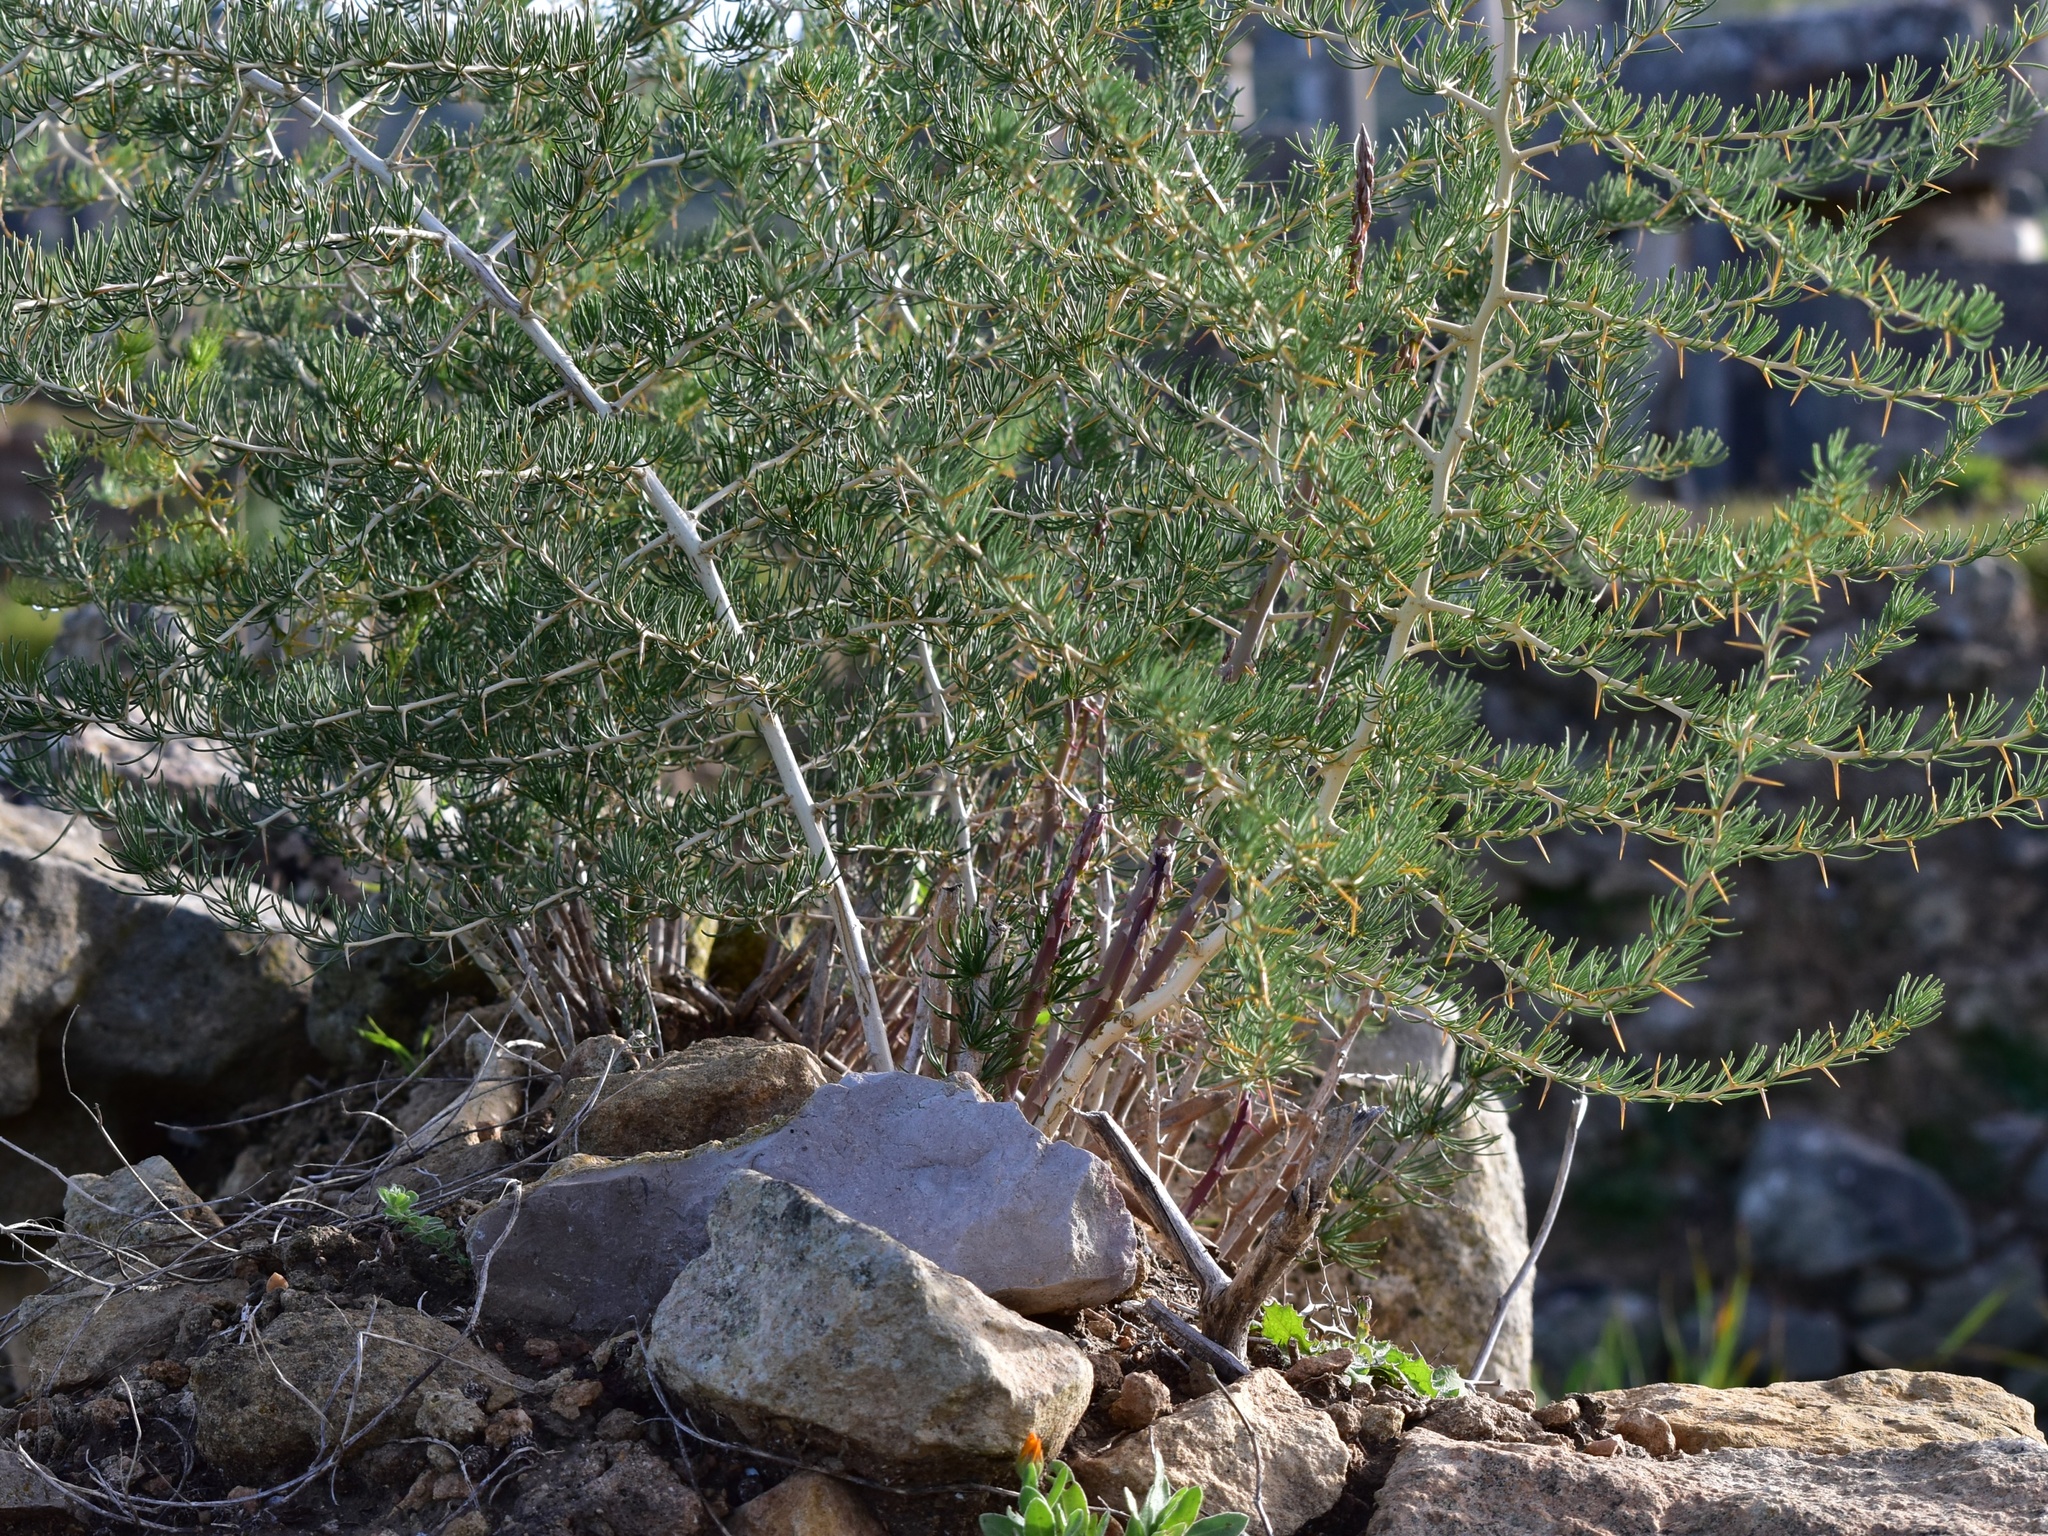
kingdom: Plantae
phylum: Tracheophyta
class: Liliopsida
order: Asparagales
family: Asparagaceae
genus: Asparagus
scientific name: Asparagus albus
